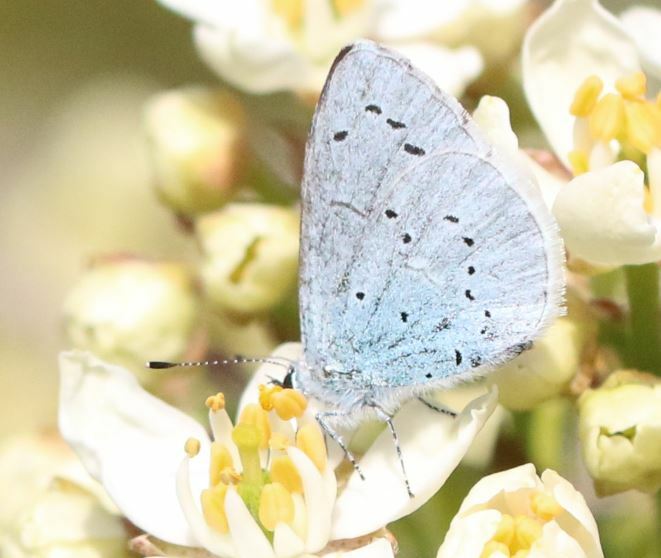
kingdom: Animalia
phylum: Arthropoda
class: Insecta
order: Lepidoptera
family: Lycaenidae
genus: Celastrina
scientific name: Celastrina argiolus
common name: Holly blue
